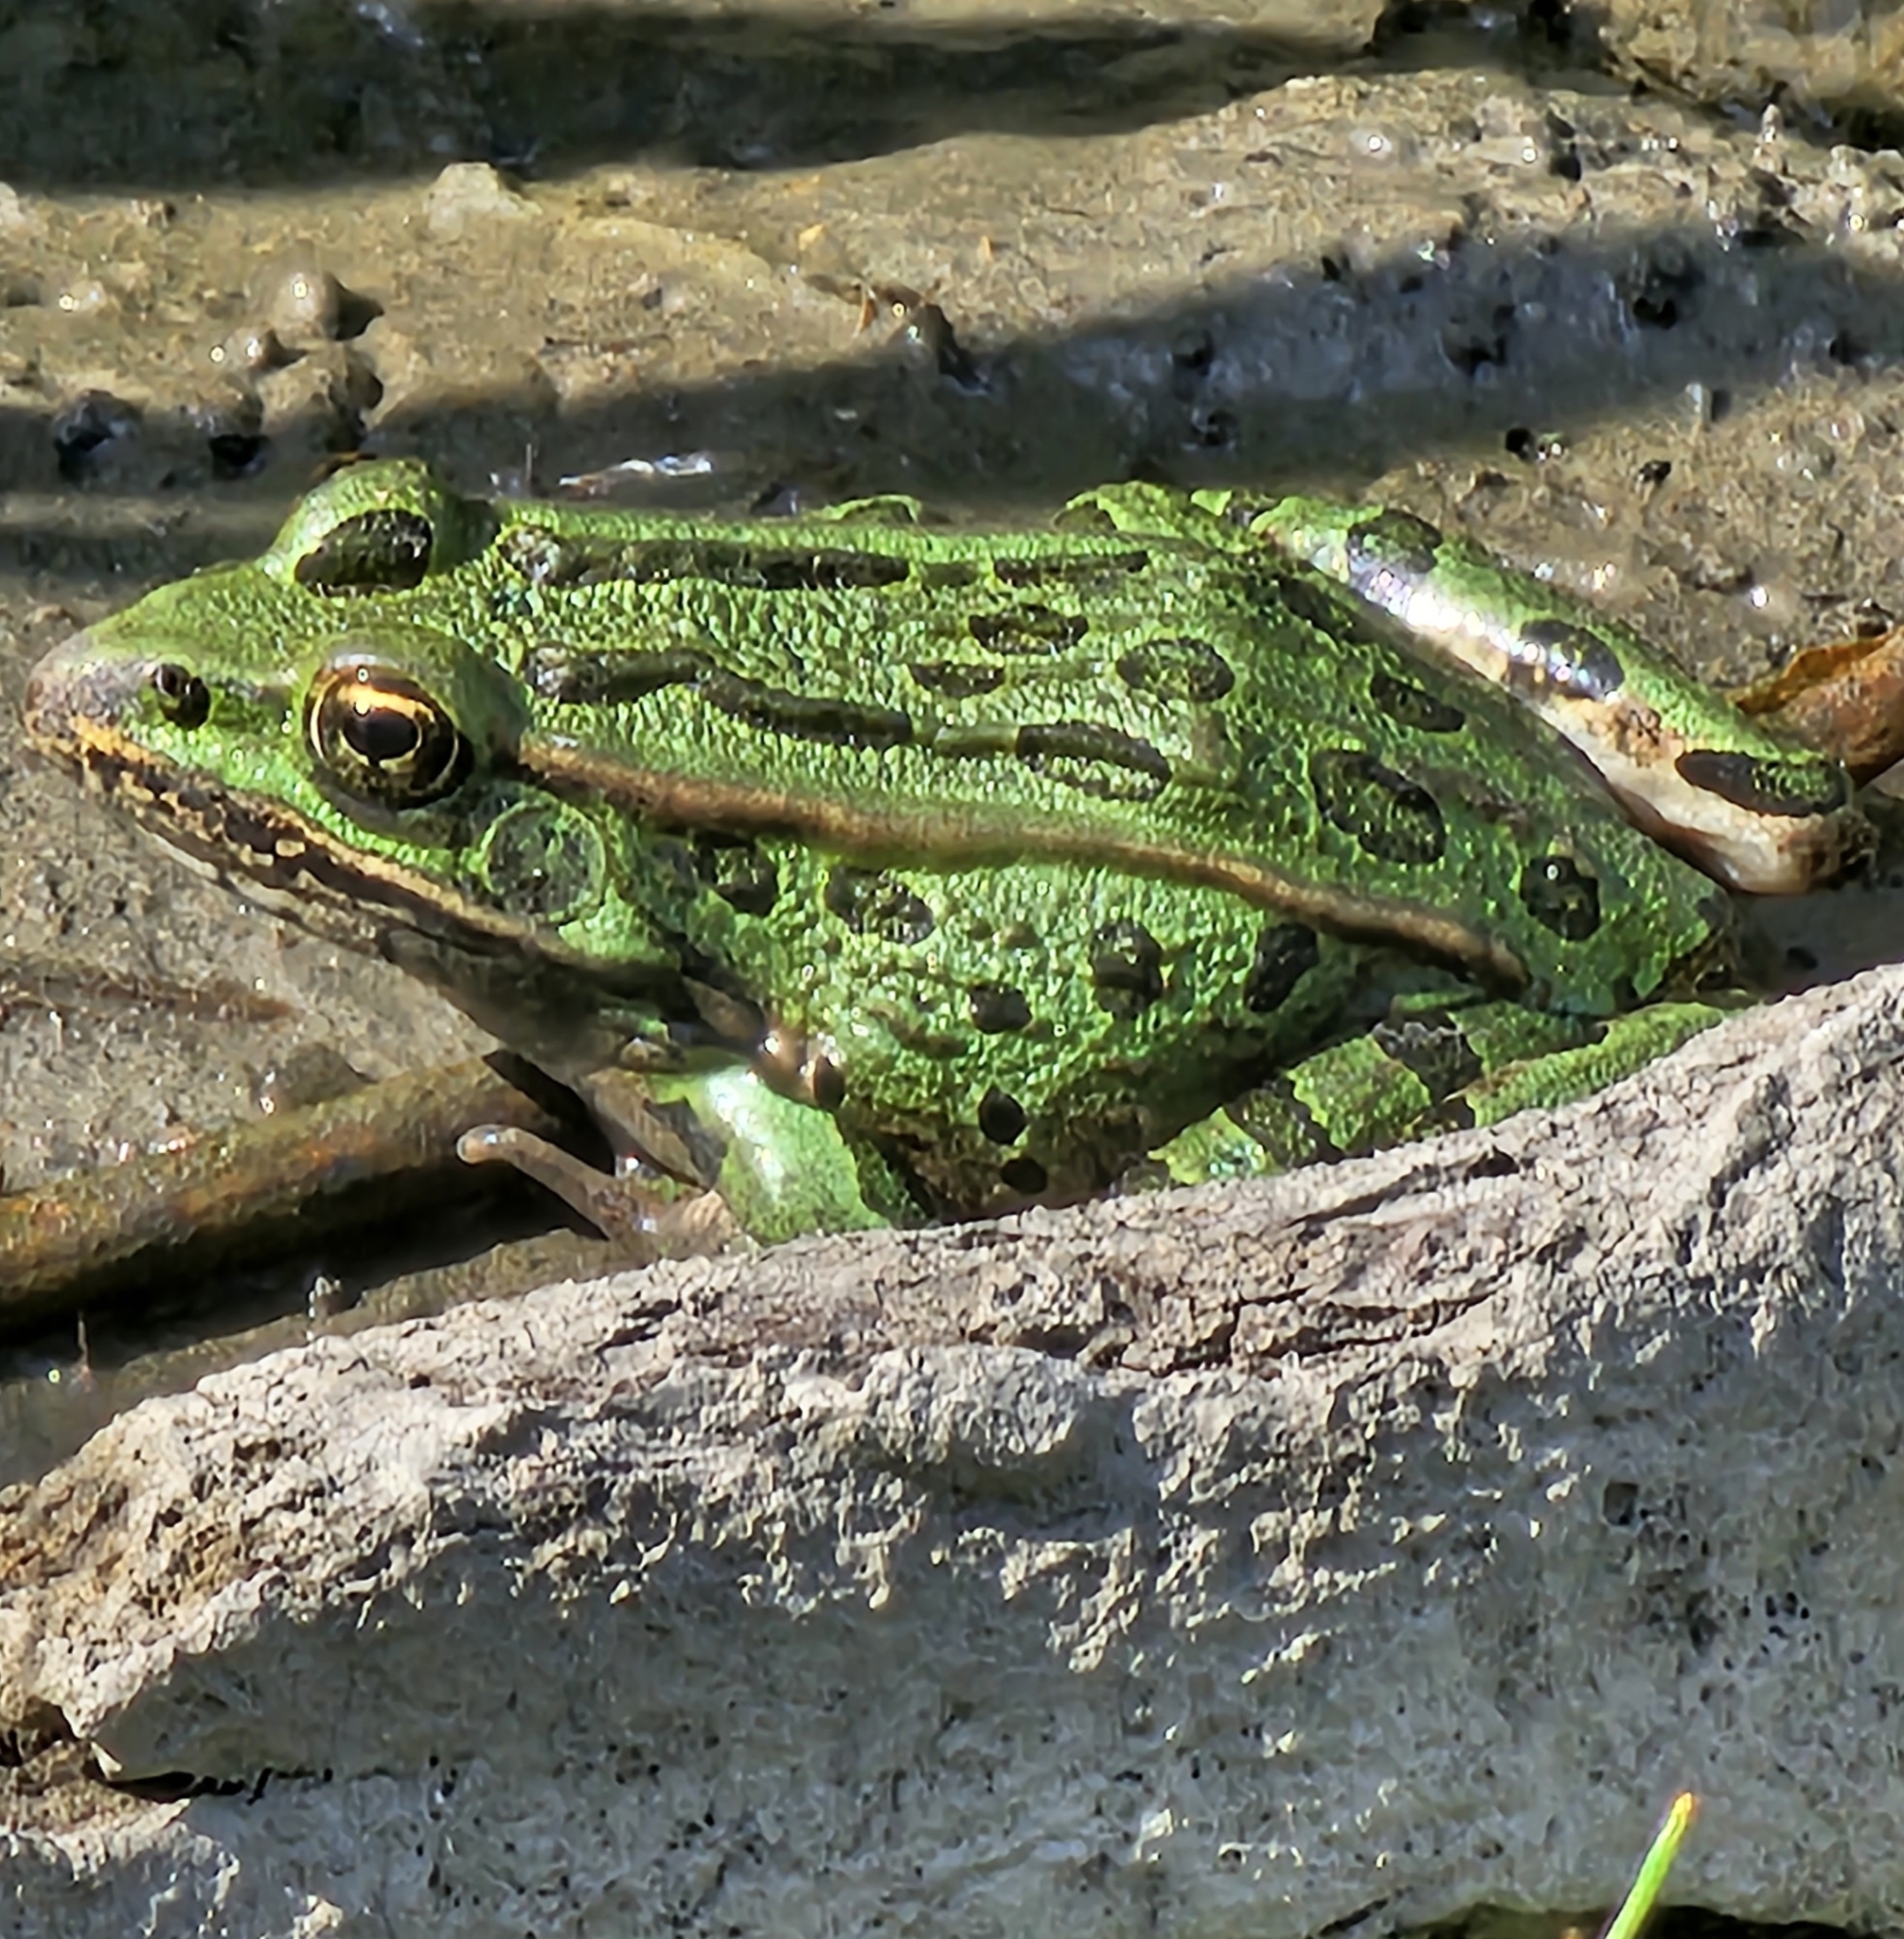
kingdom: Animalia
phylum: Chordata
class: Amphibia
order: Anura
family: Ranidae
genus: Lithobates
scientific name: Lithobates pipiens
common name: Northern leopard frog
